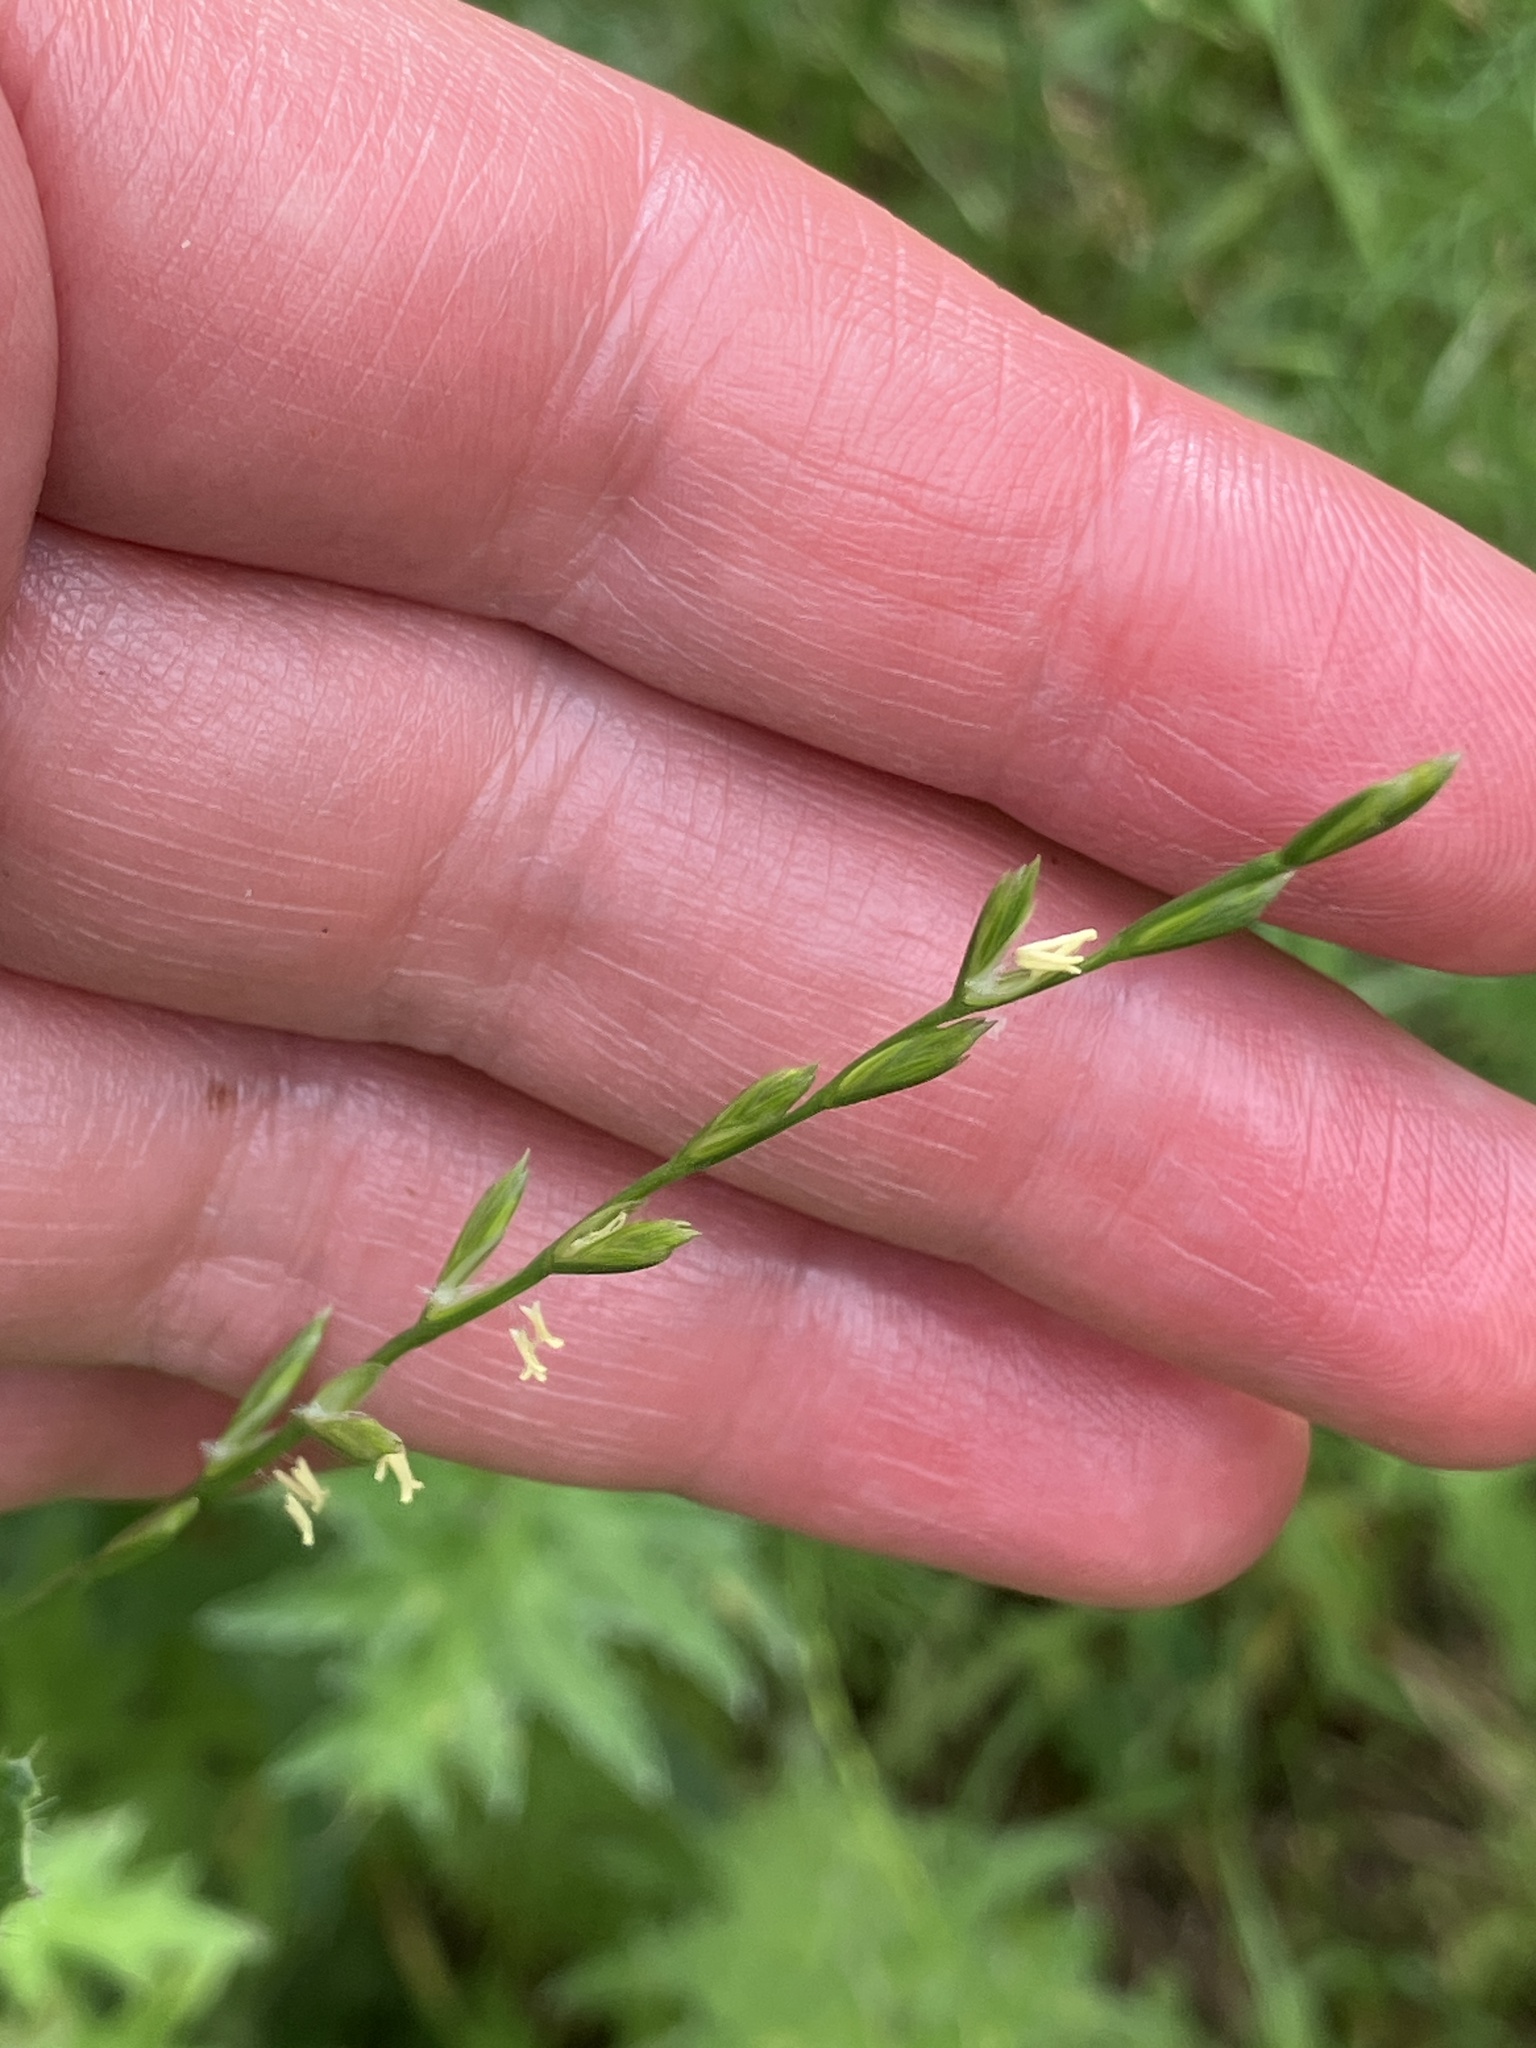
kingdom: Plantae
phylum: Tracheophyta
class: Liliopsida
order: Poales
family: Poaceae
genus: Lolium
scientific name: Lolium perenne
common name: Perennial ryegrass
